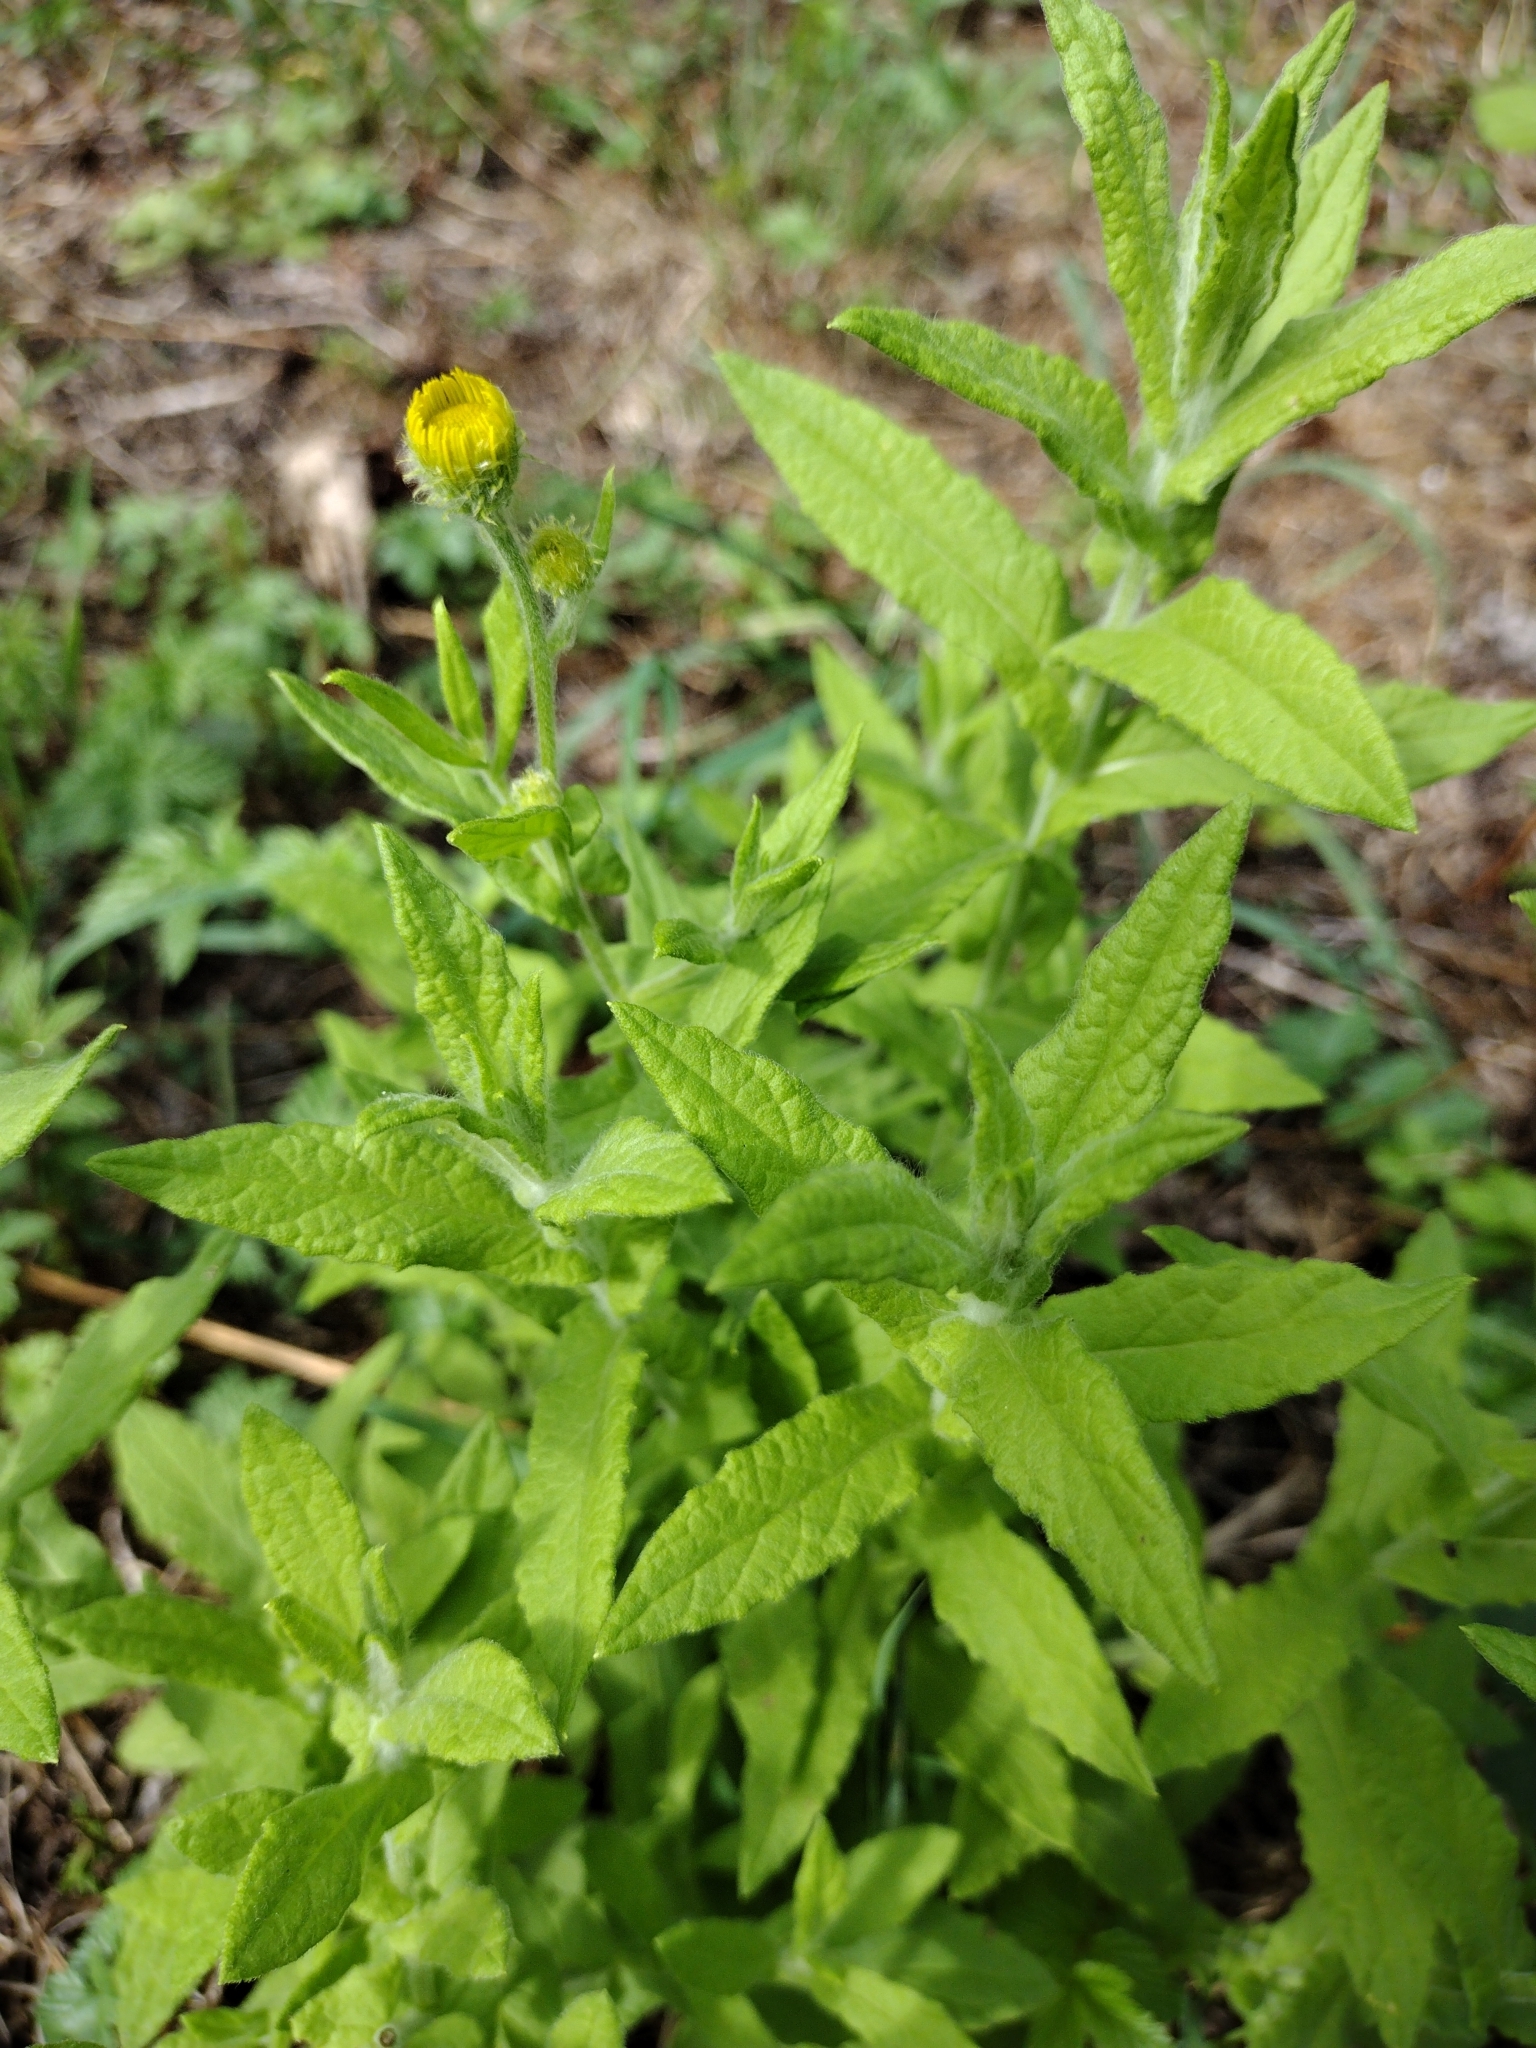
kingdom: Plantae
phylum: Tracheophyta
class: Magnoliopsida
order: Asterales
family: Asteraceae
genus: Pulicaria
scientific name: Pulicaria dysenterica
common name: Common fleabane
